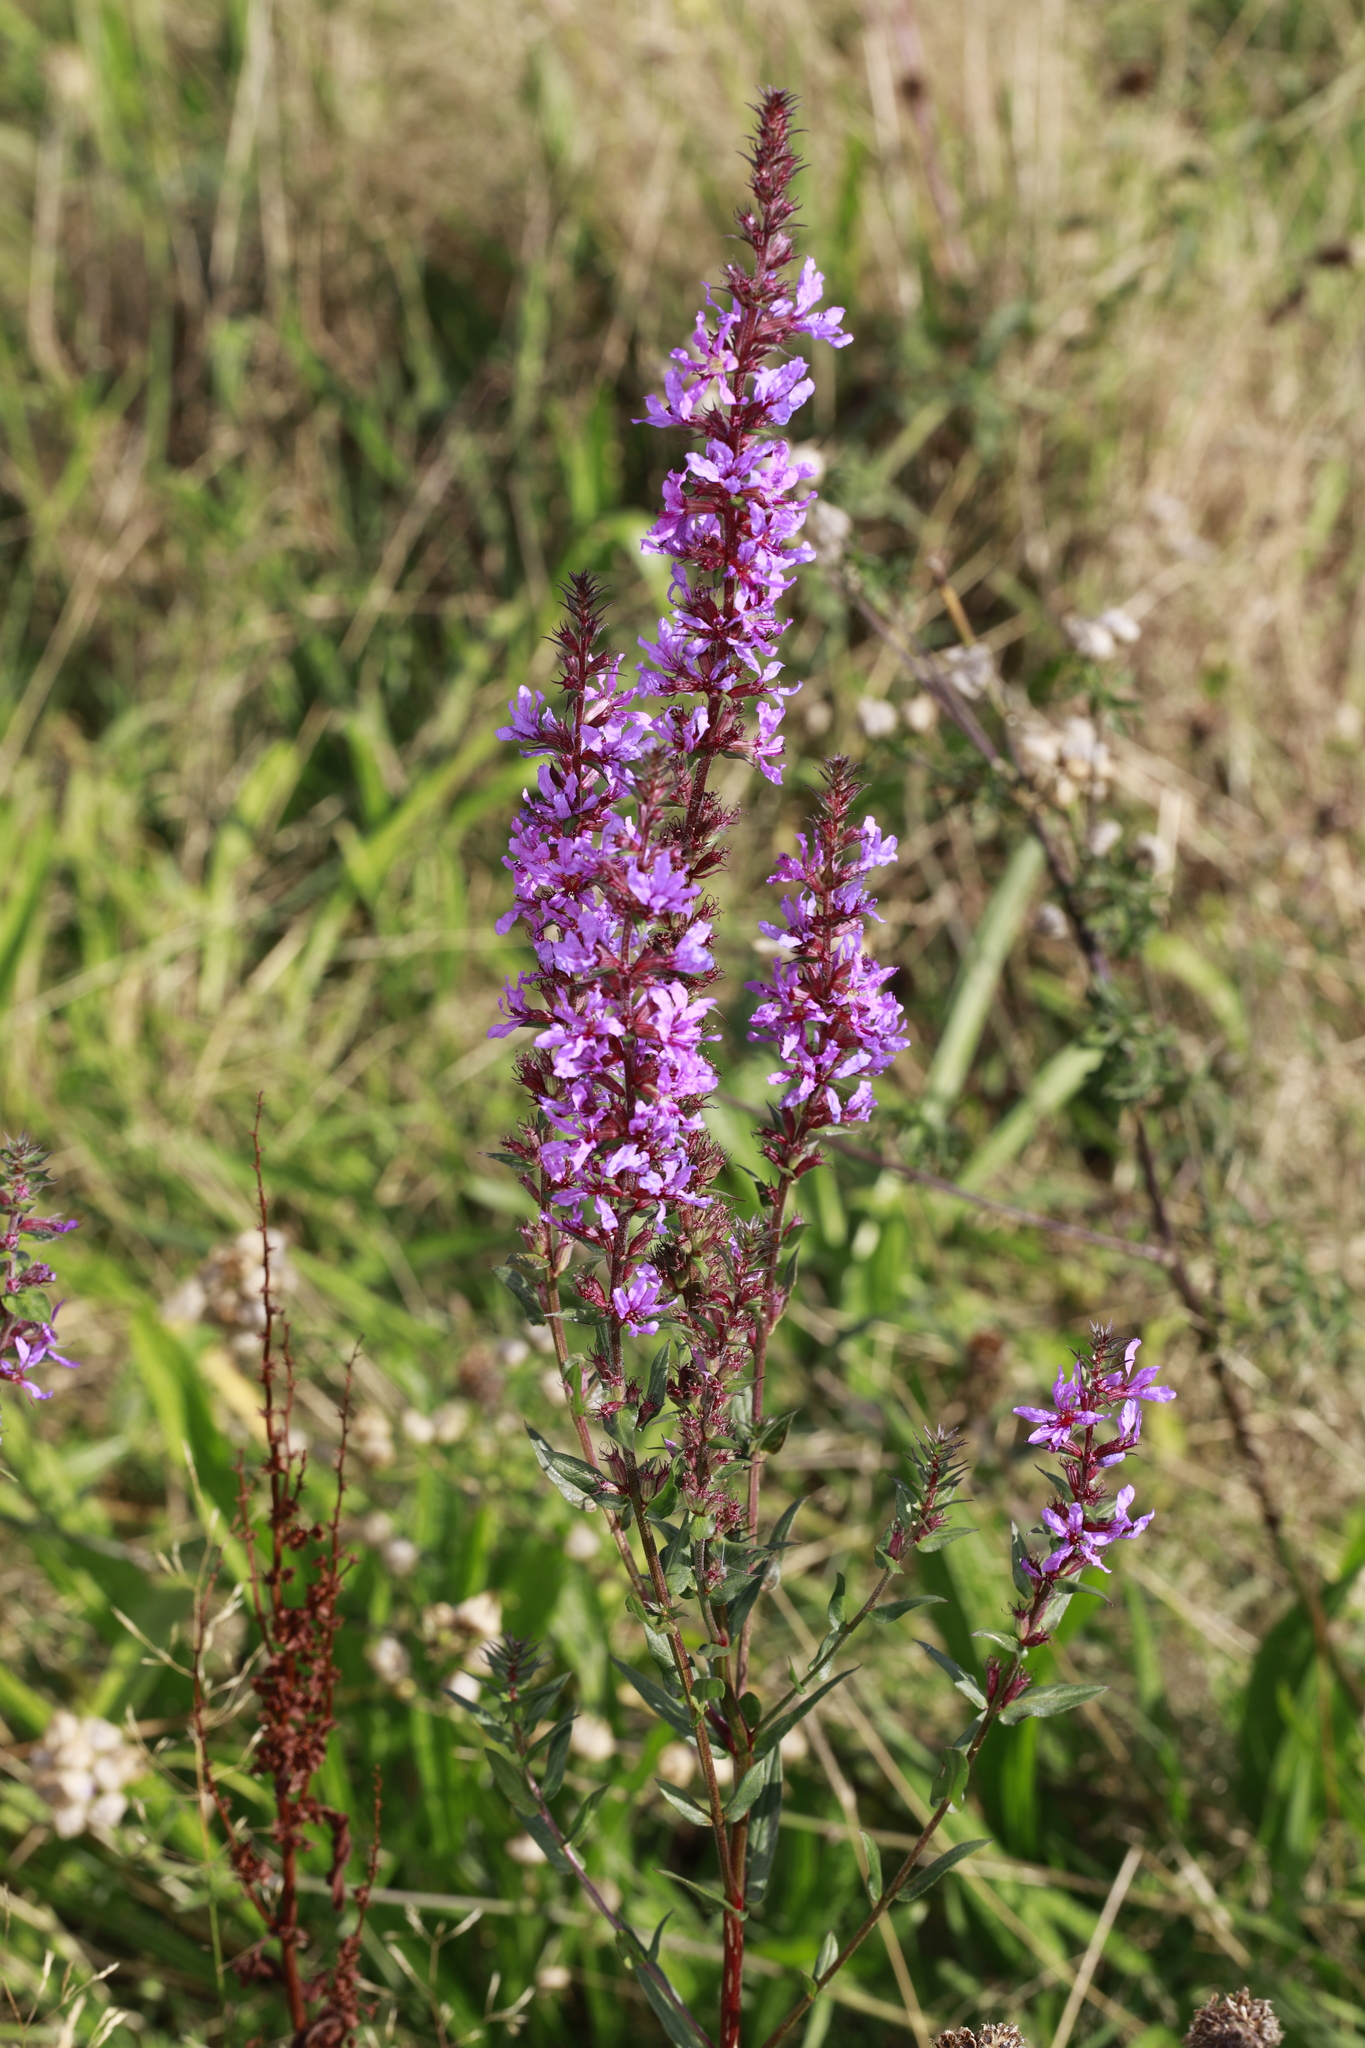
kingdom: Plantae
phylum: Tracheophyta
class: Magnoliopsida
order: Myrtales
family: Lythraceae
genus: Lythrum
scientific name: Lythrum salicaria
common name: Purple loosestrife
